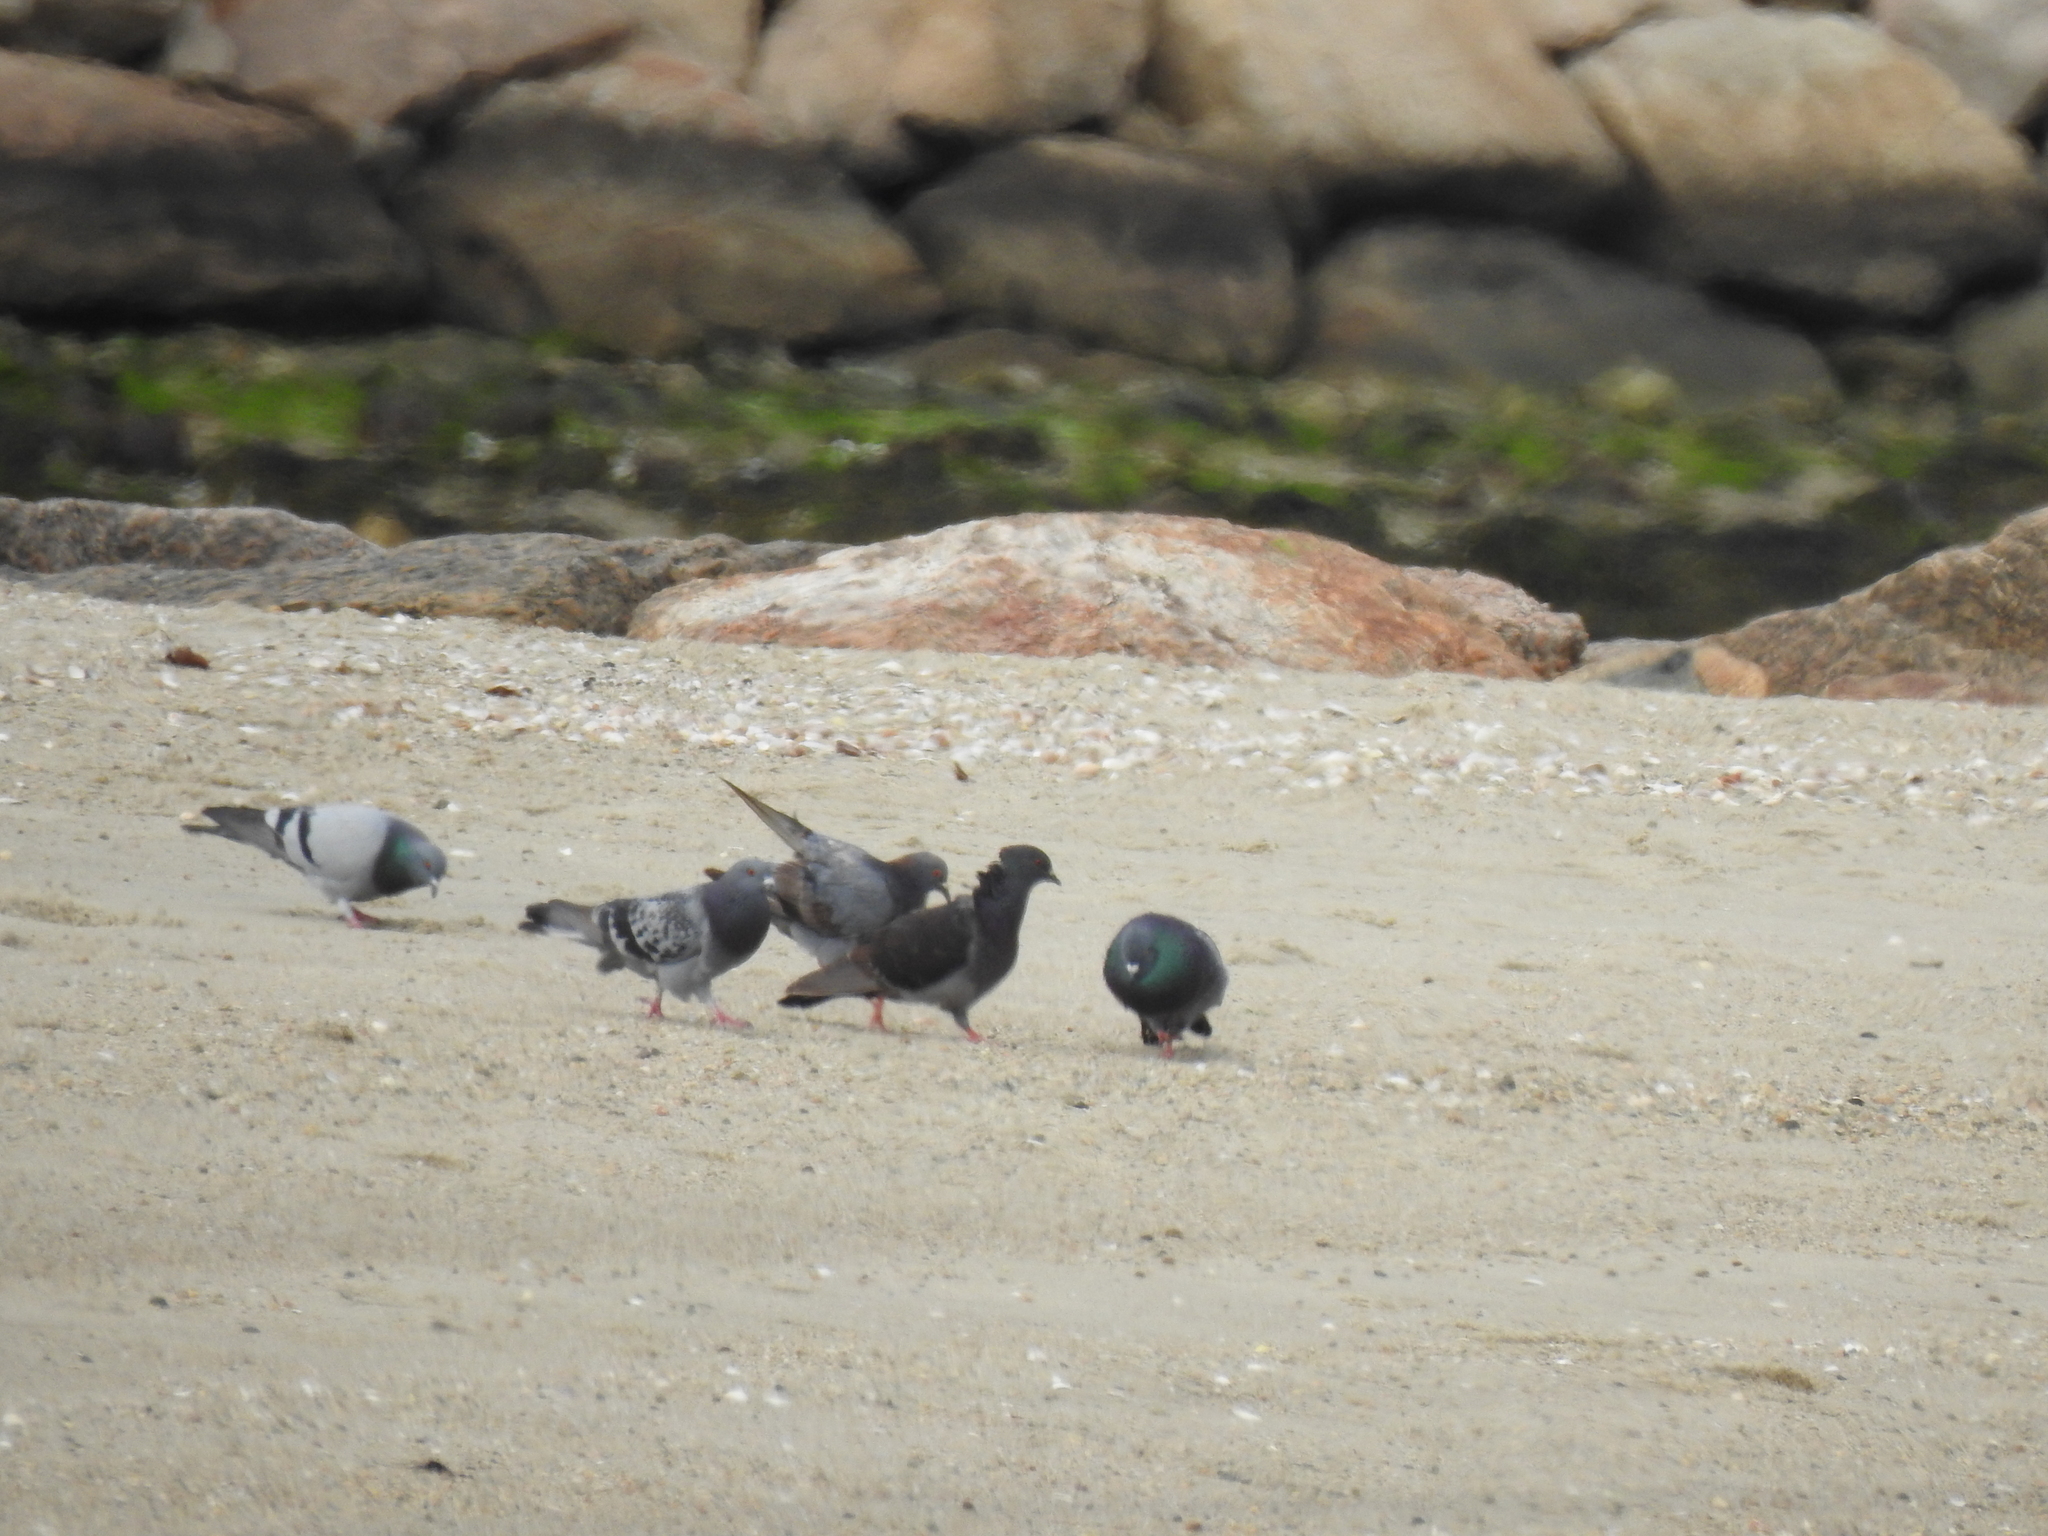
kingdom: Animalia
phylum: Chordata
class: Aves
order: Columbiformes
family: Columbidae
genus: Columba
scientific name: Columba livia
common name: Rock pigeon
